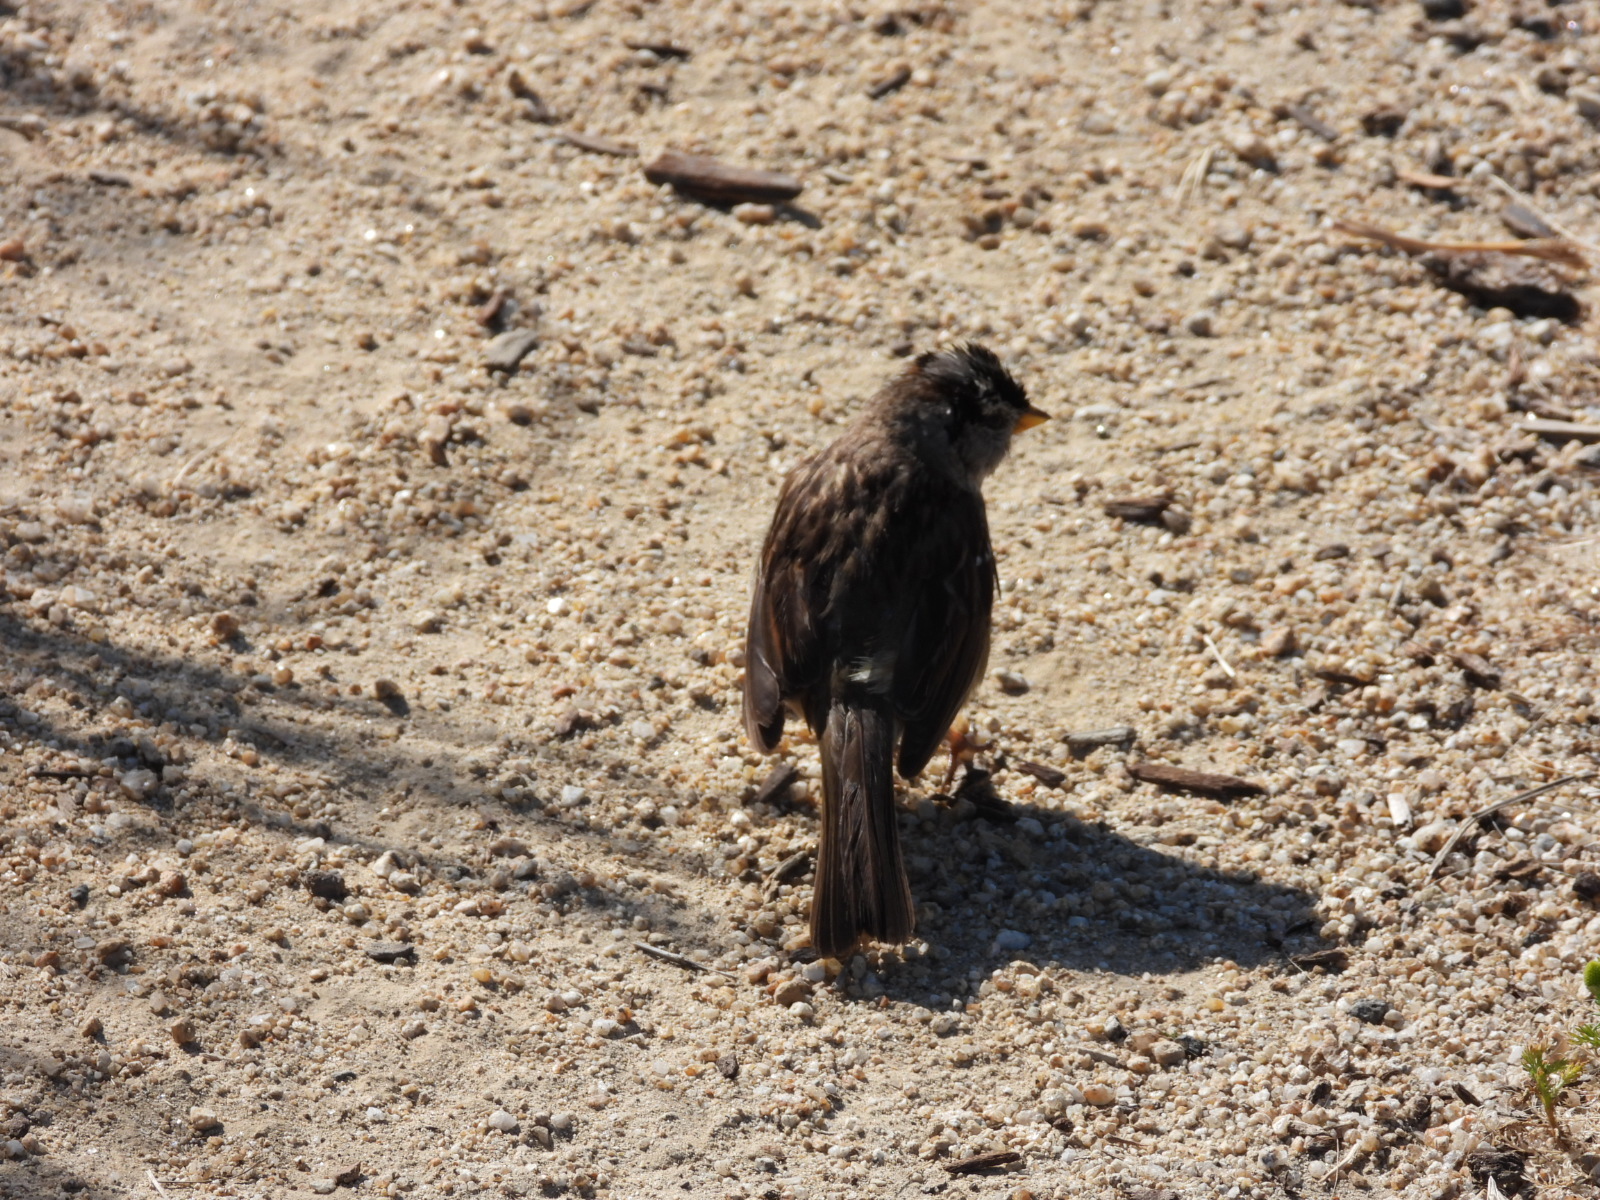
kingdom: Animalia
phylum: Chordata
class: Aves
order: Passeriformes
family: Passerellidae
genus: Zonotrichia
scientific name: Zonotrichia leucophrys
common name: White-crowned sparrow
